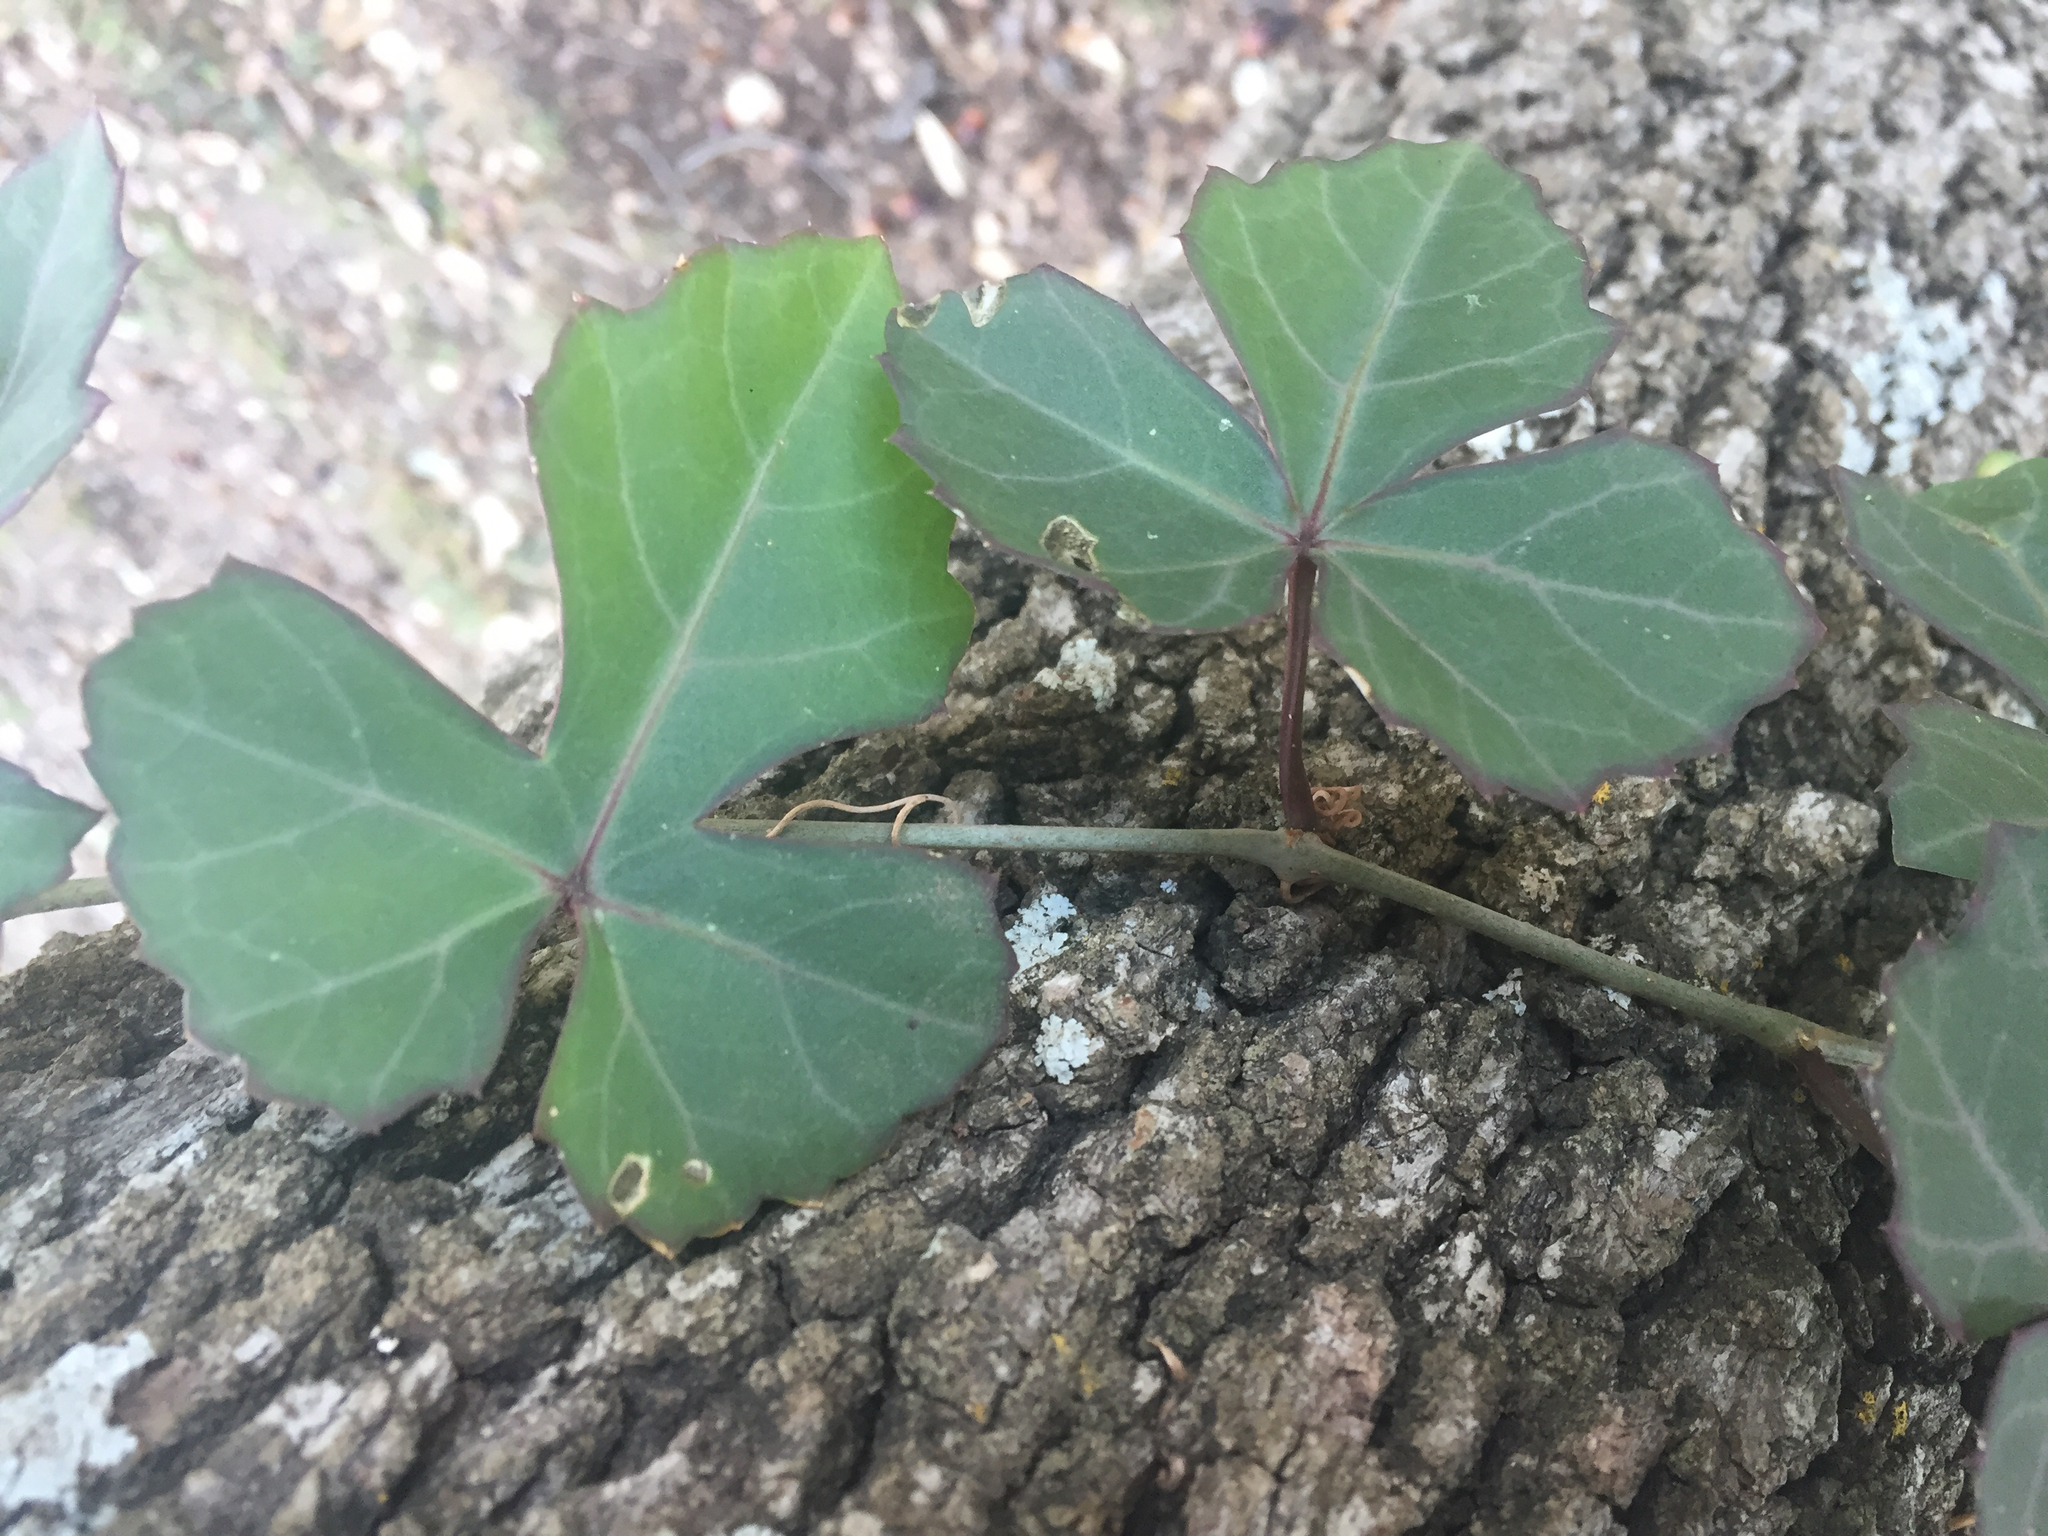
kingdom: Plantae
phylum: Tracheophyta
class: Magnoliopsida
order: Vitales
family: Vitaceae
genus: Cissus
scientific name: Cissus trifoliata
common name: Vine-sorrel
